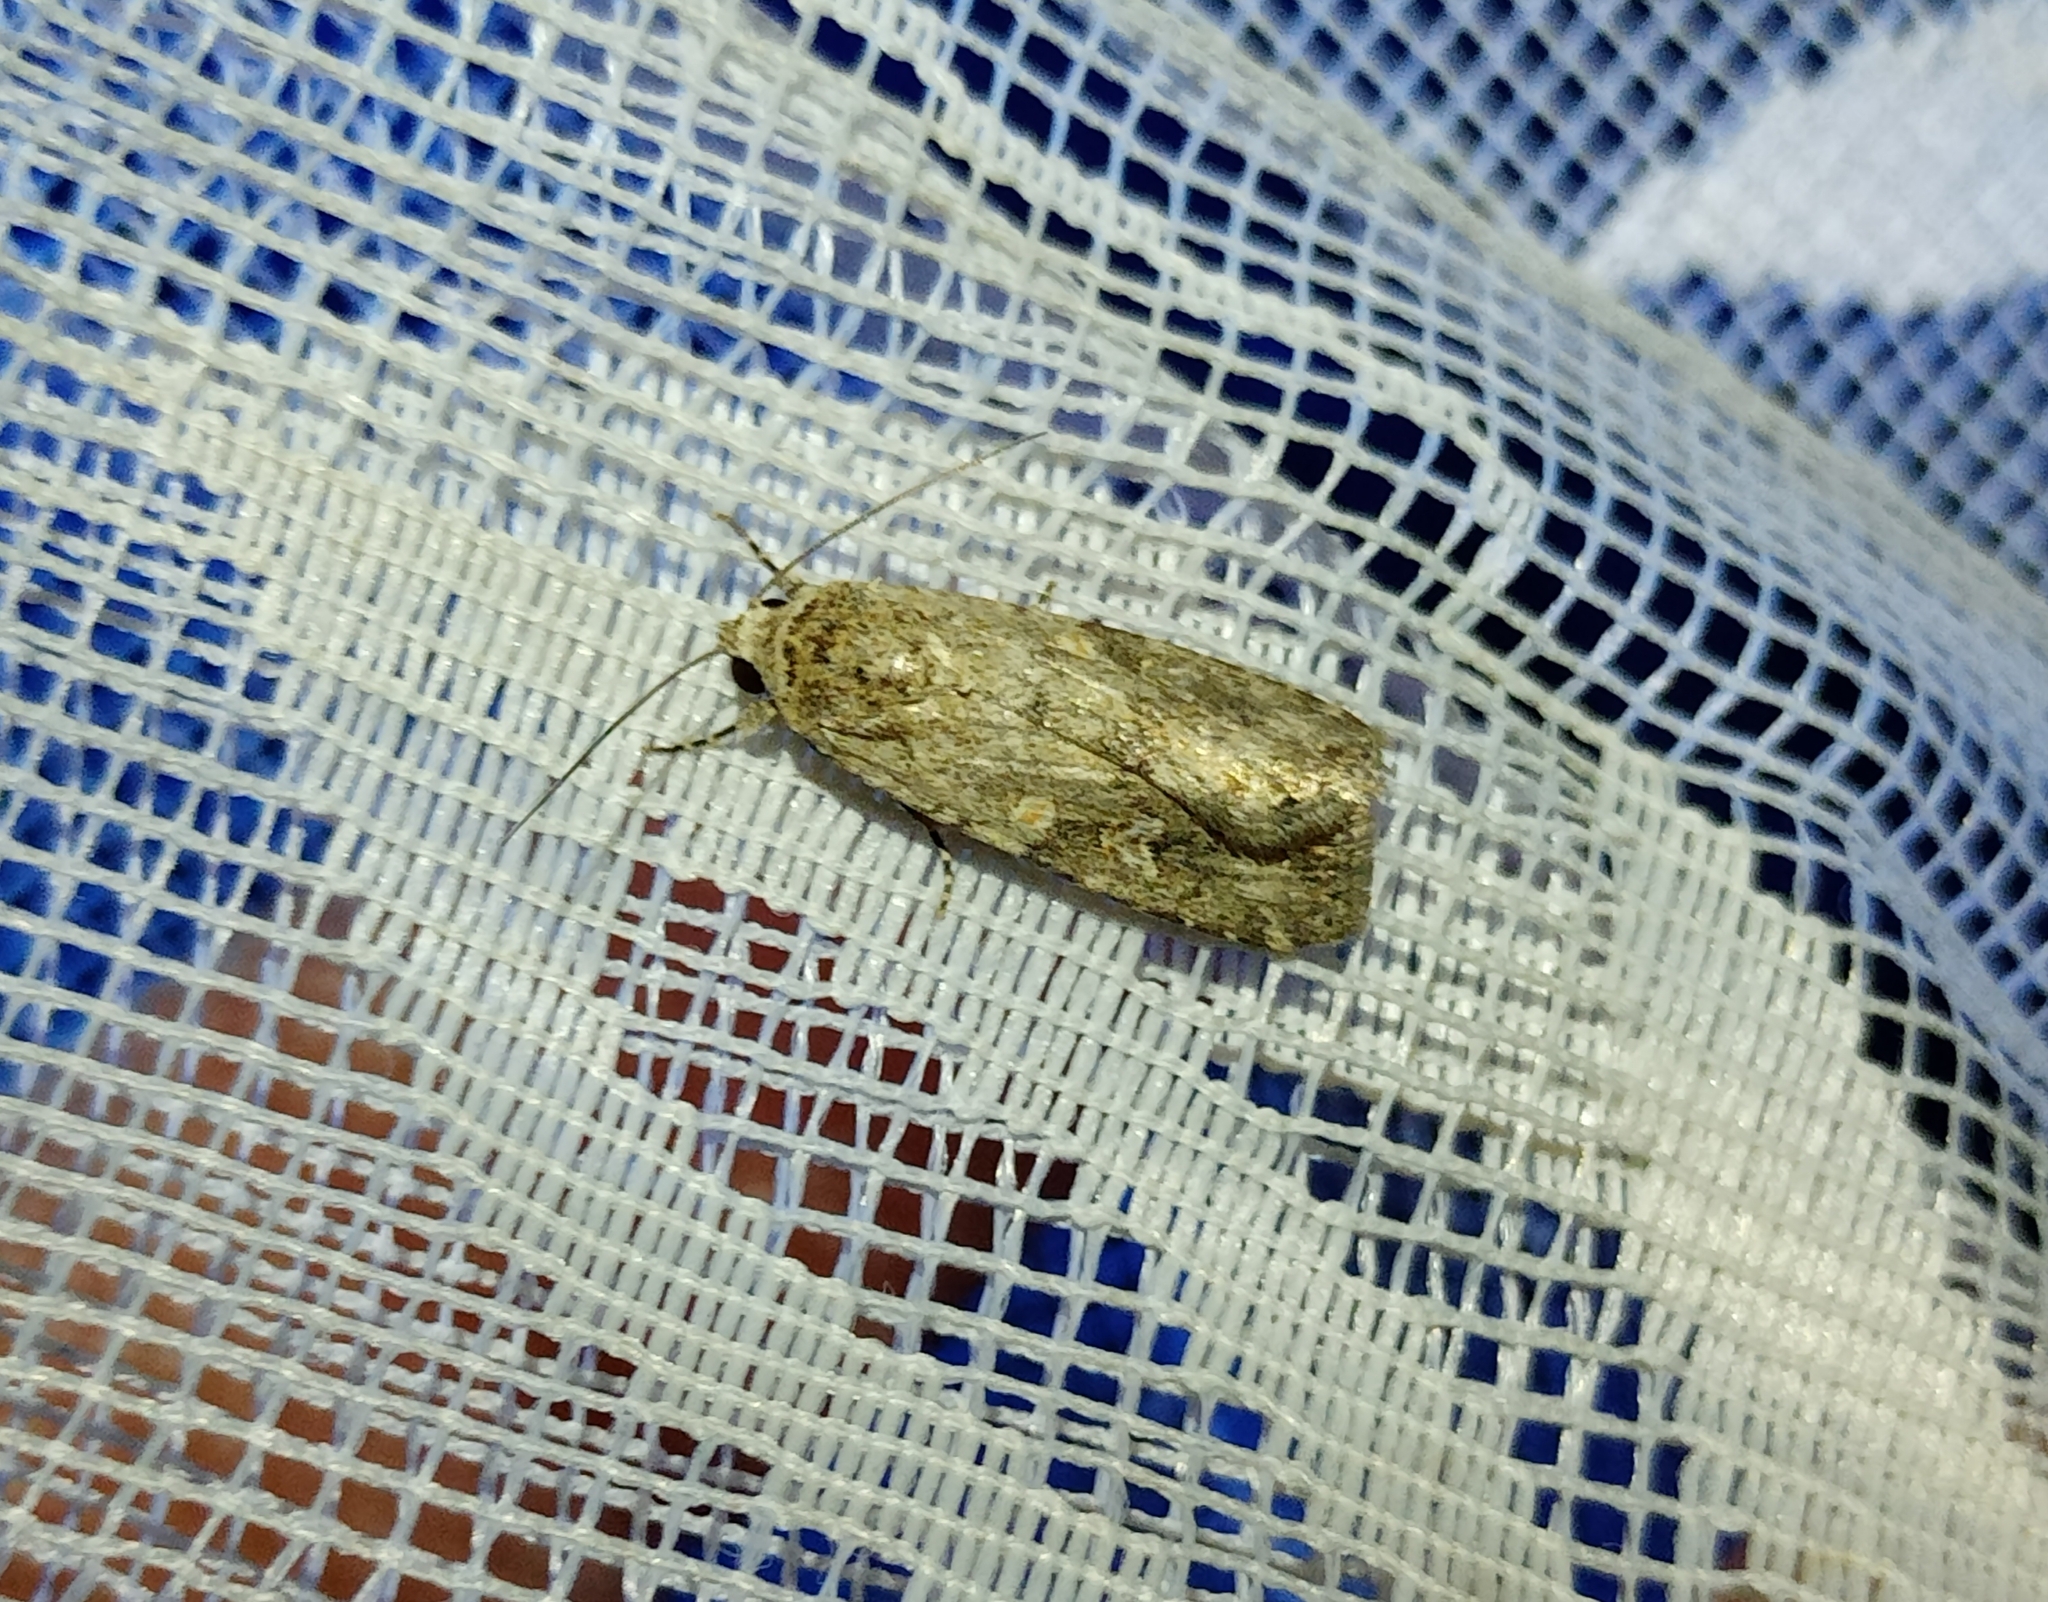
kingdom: Animalia
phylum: Arthropoda
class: Insecta
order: Lepidoptera
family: Noctuidae
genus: Spodoptera
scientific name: Spodoptera exigua
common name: Beet armyworm
